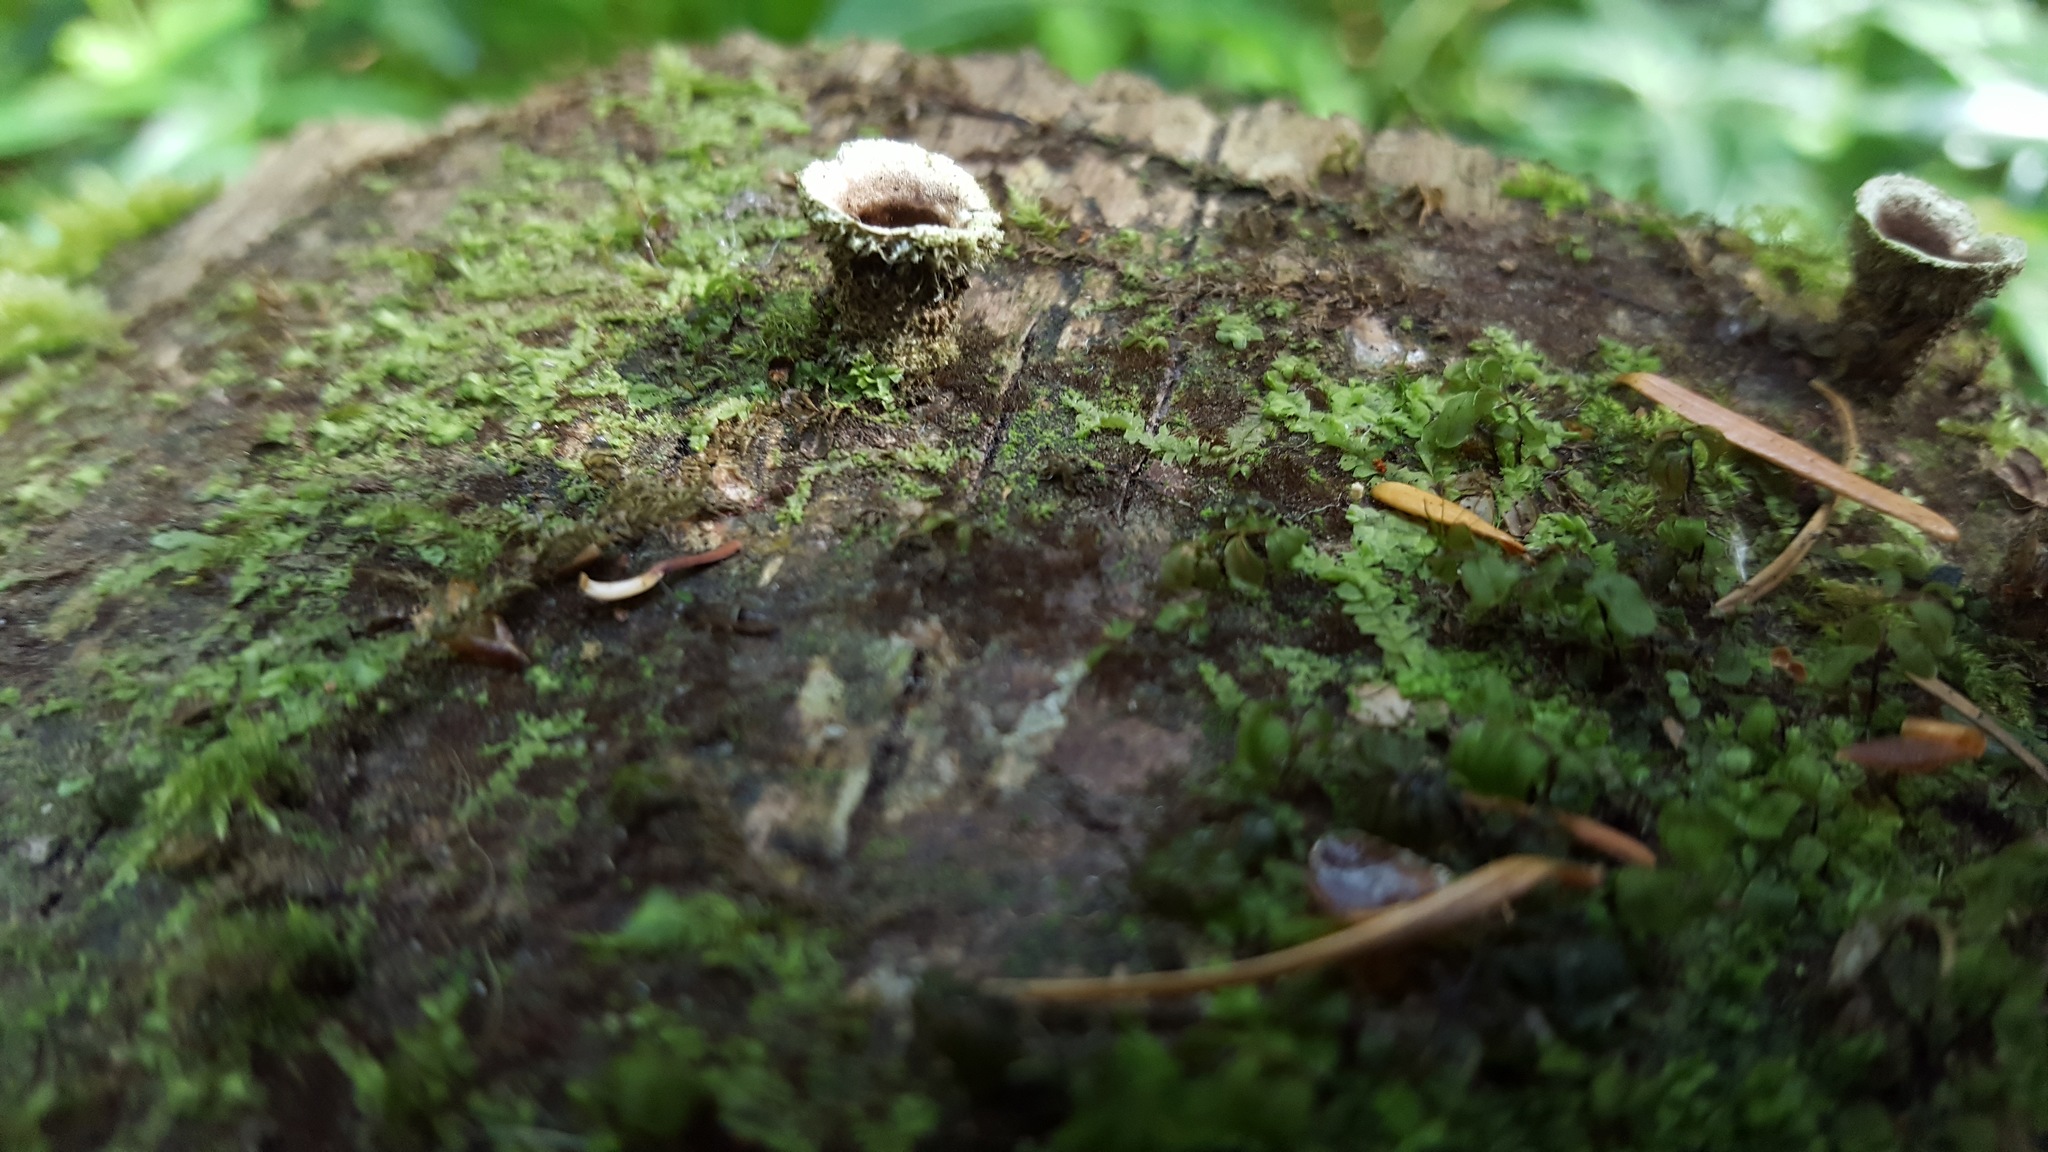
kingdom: Fungi
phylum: Basidiomycota
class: Agaricomycetes
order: Agaricales
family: Agaricaceae
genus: Nidula
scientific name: Nidula candida
